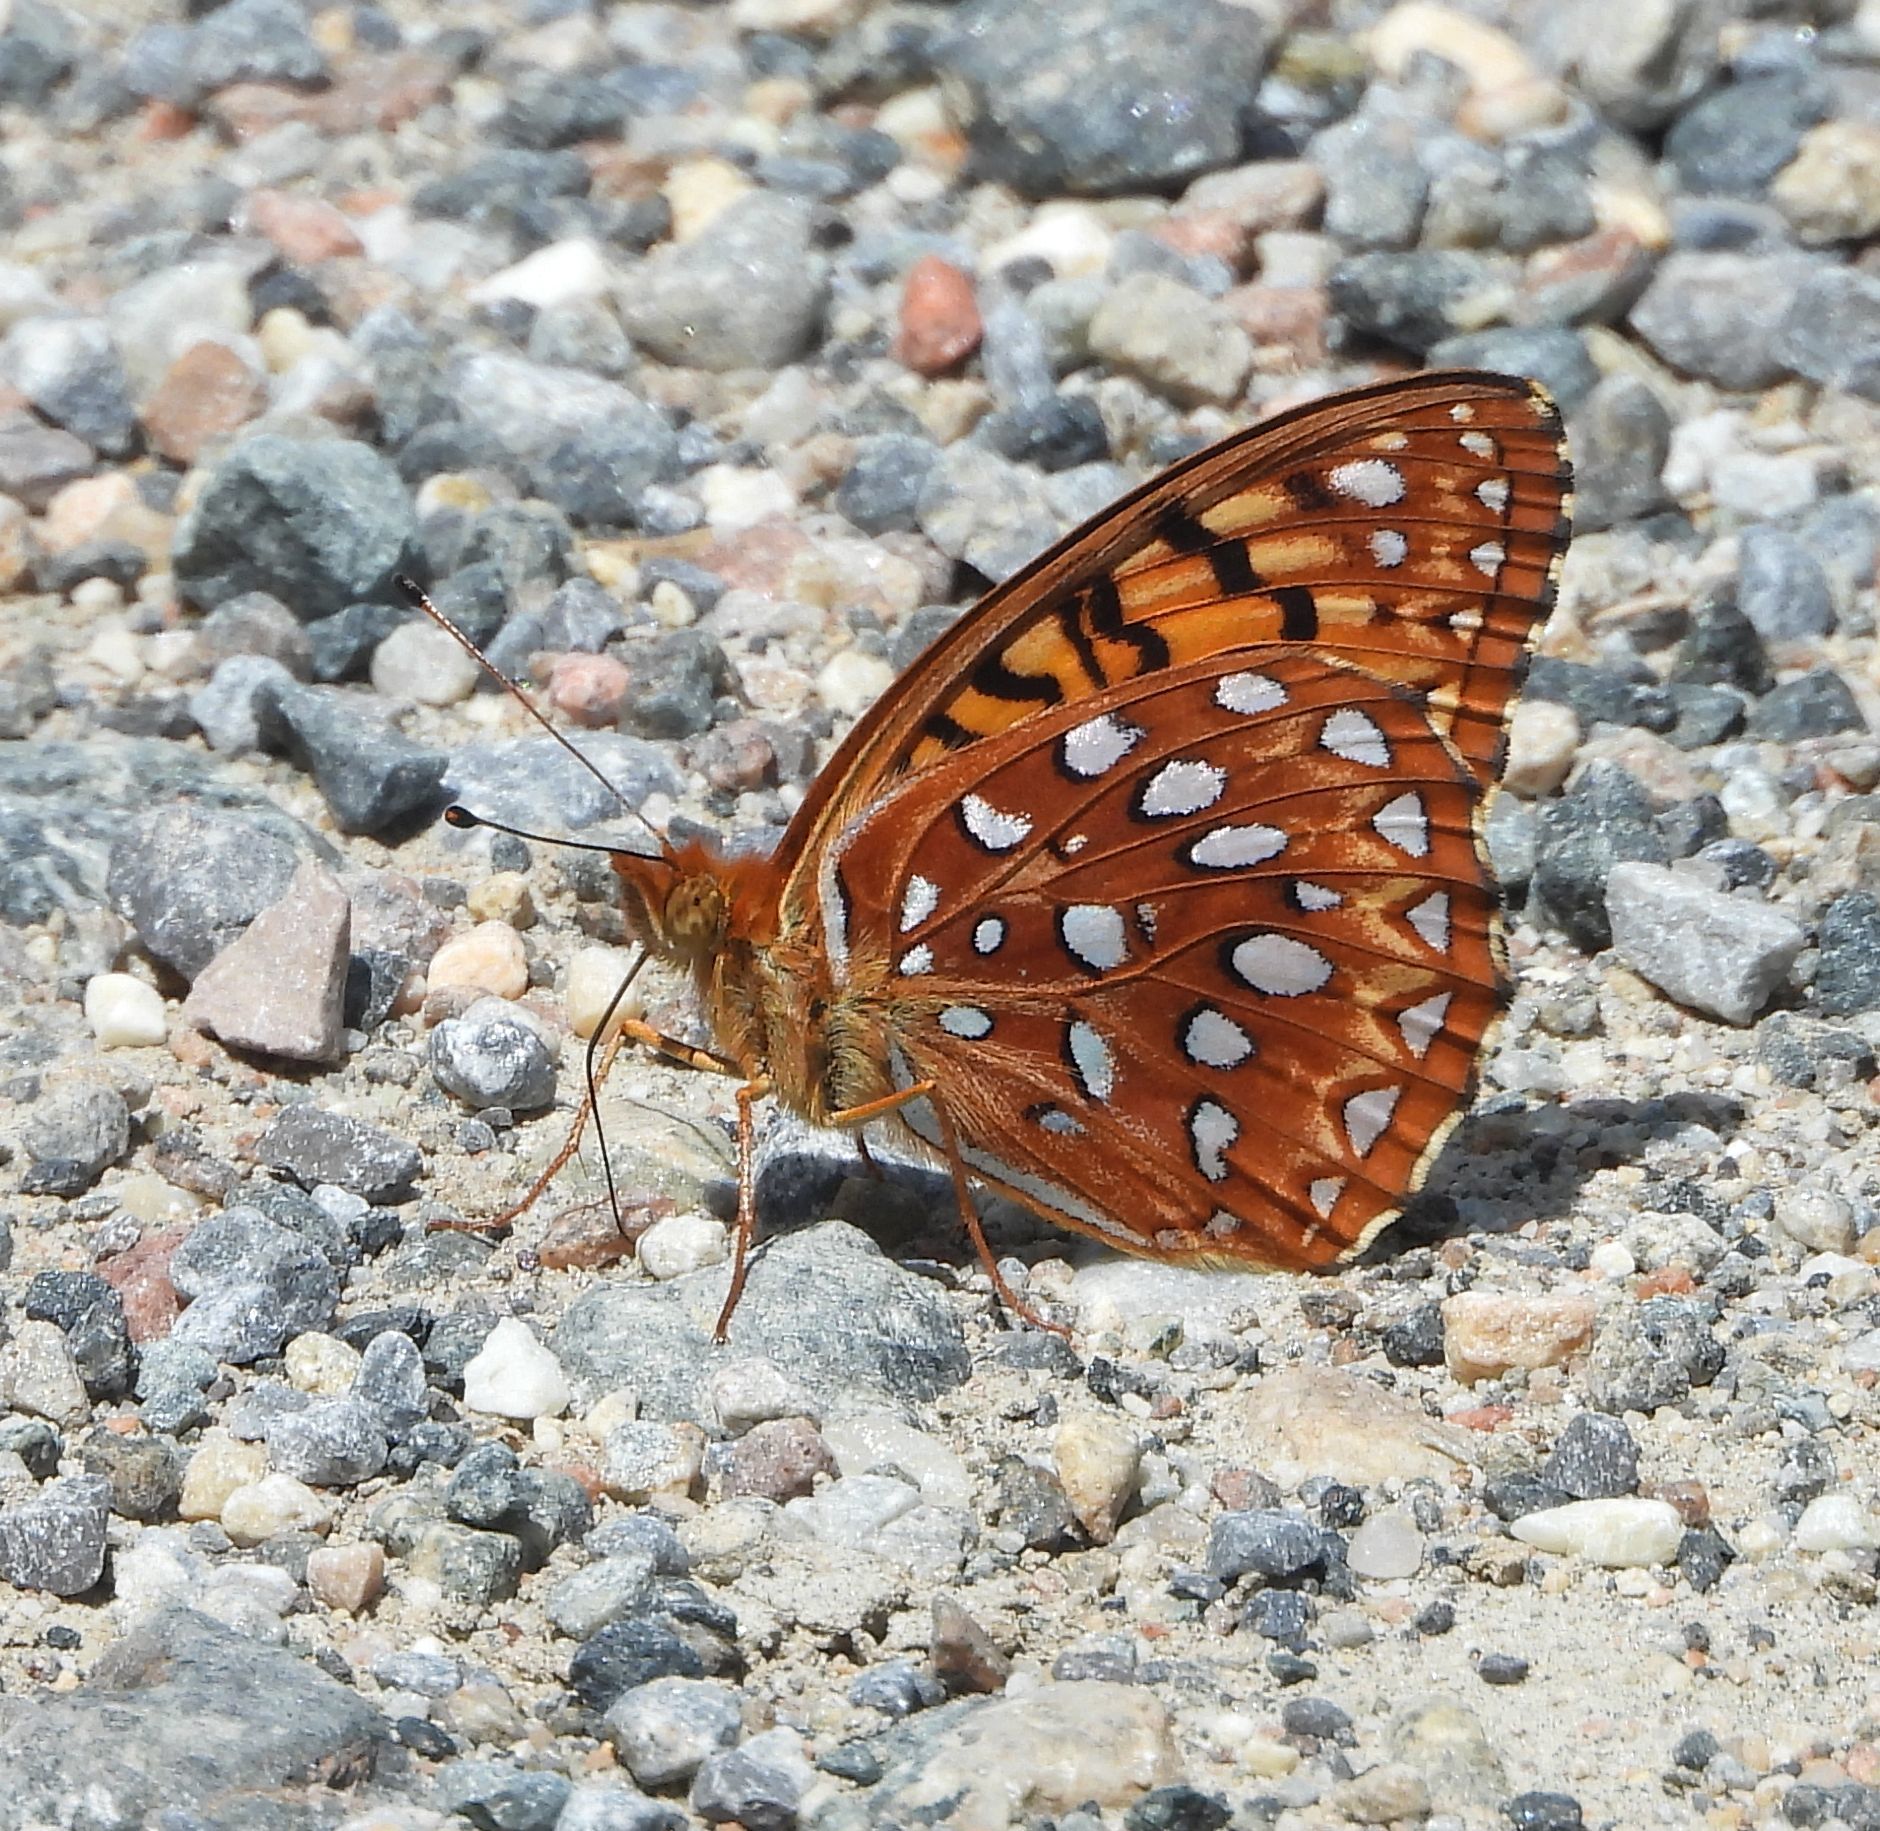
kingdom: Animalia
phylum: Arthropoda
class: Insecta
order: Lepidoptera
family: Nymphalidae
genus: Speyeria
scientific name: Speyeria aphrodite
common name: Aphrodite friitllary
